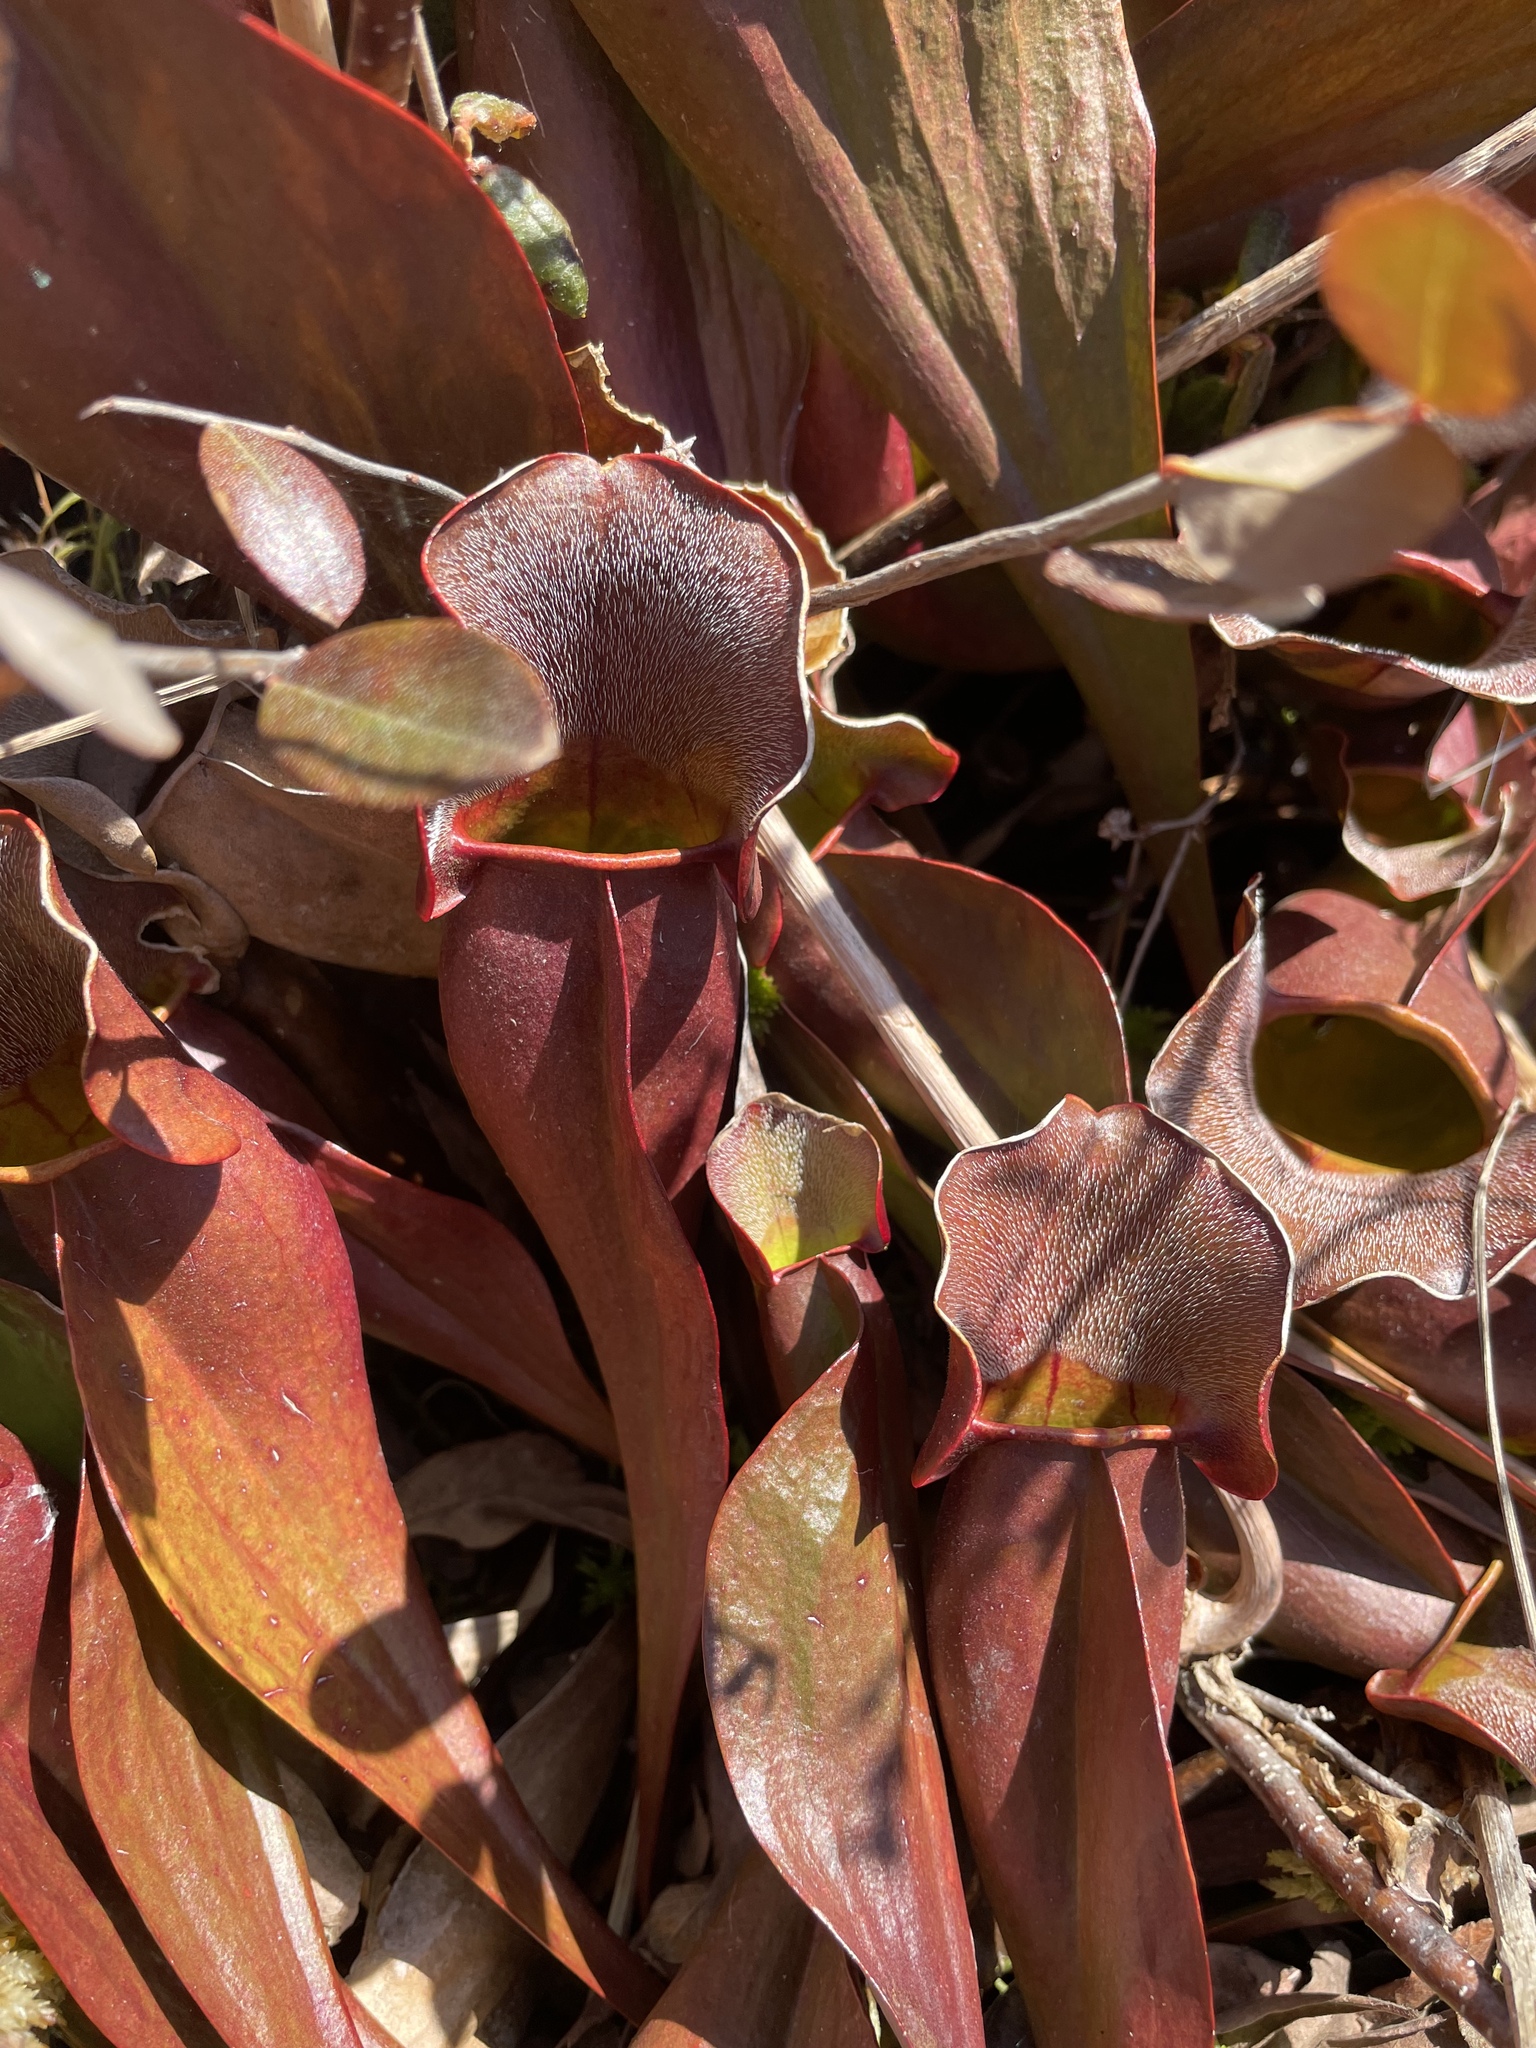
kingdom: Plantae
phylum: Tracheophyta
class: Magnoliopsida
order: Ericales
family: Sarraceniaceae
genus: Sarracenia
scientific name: Sarracenia purpurea
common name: Pitcherplant
